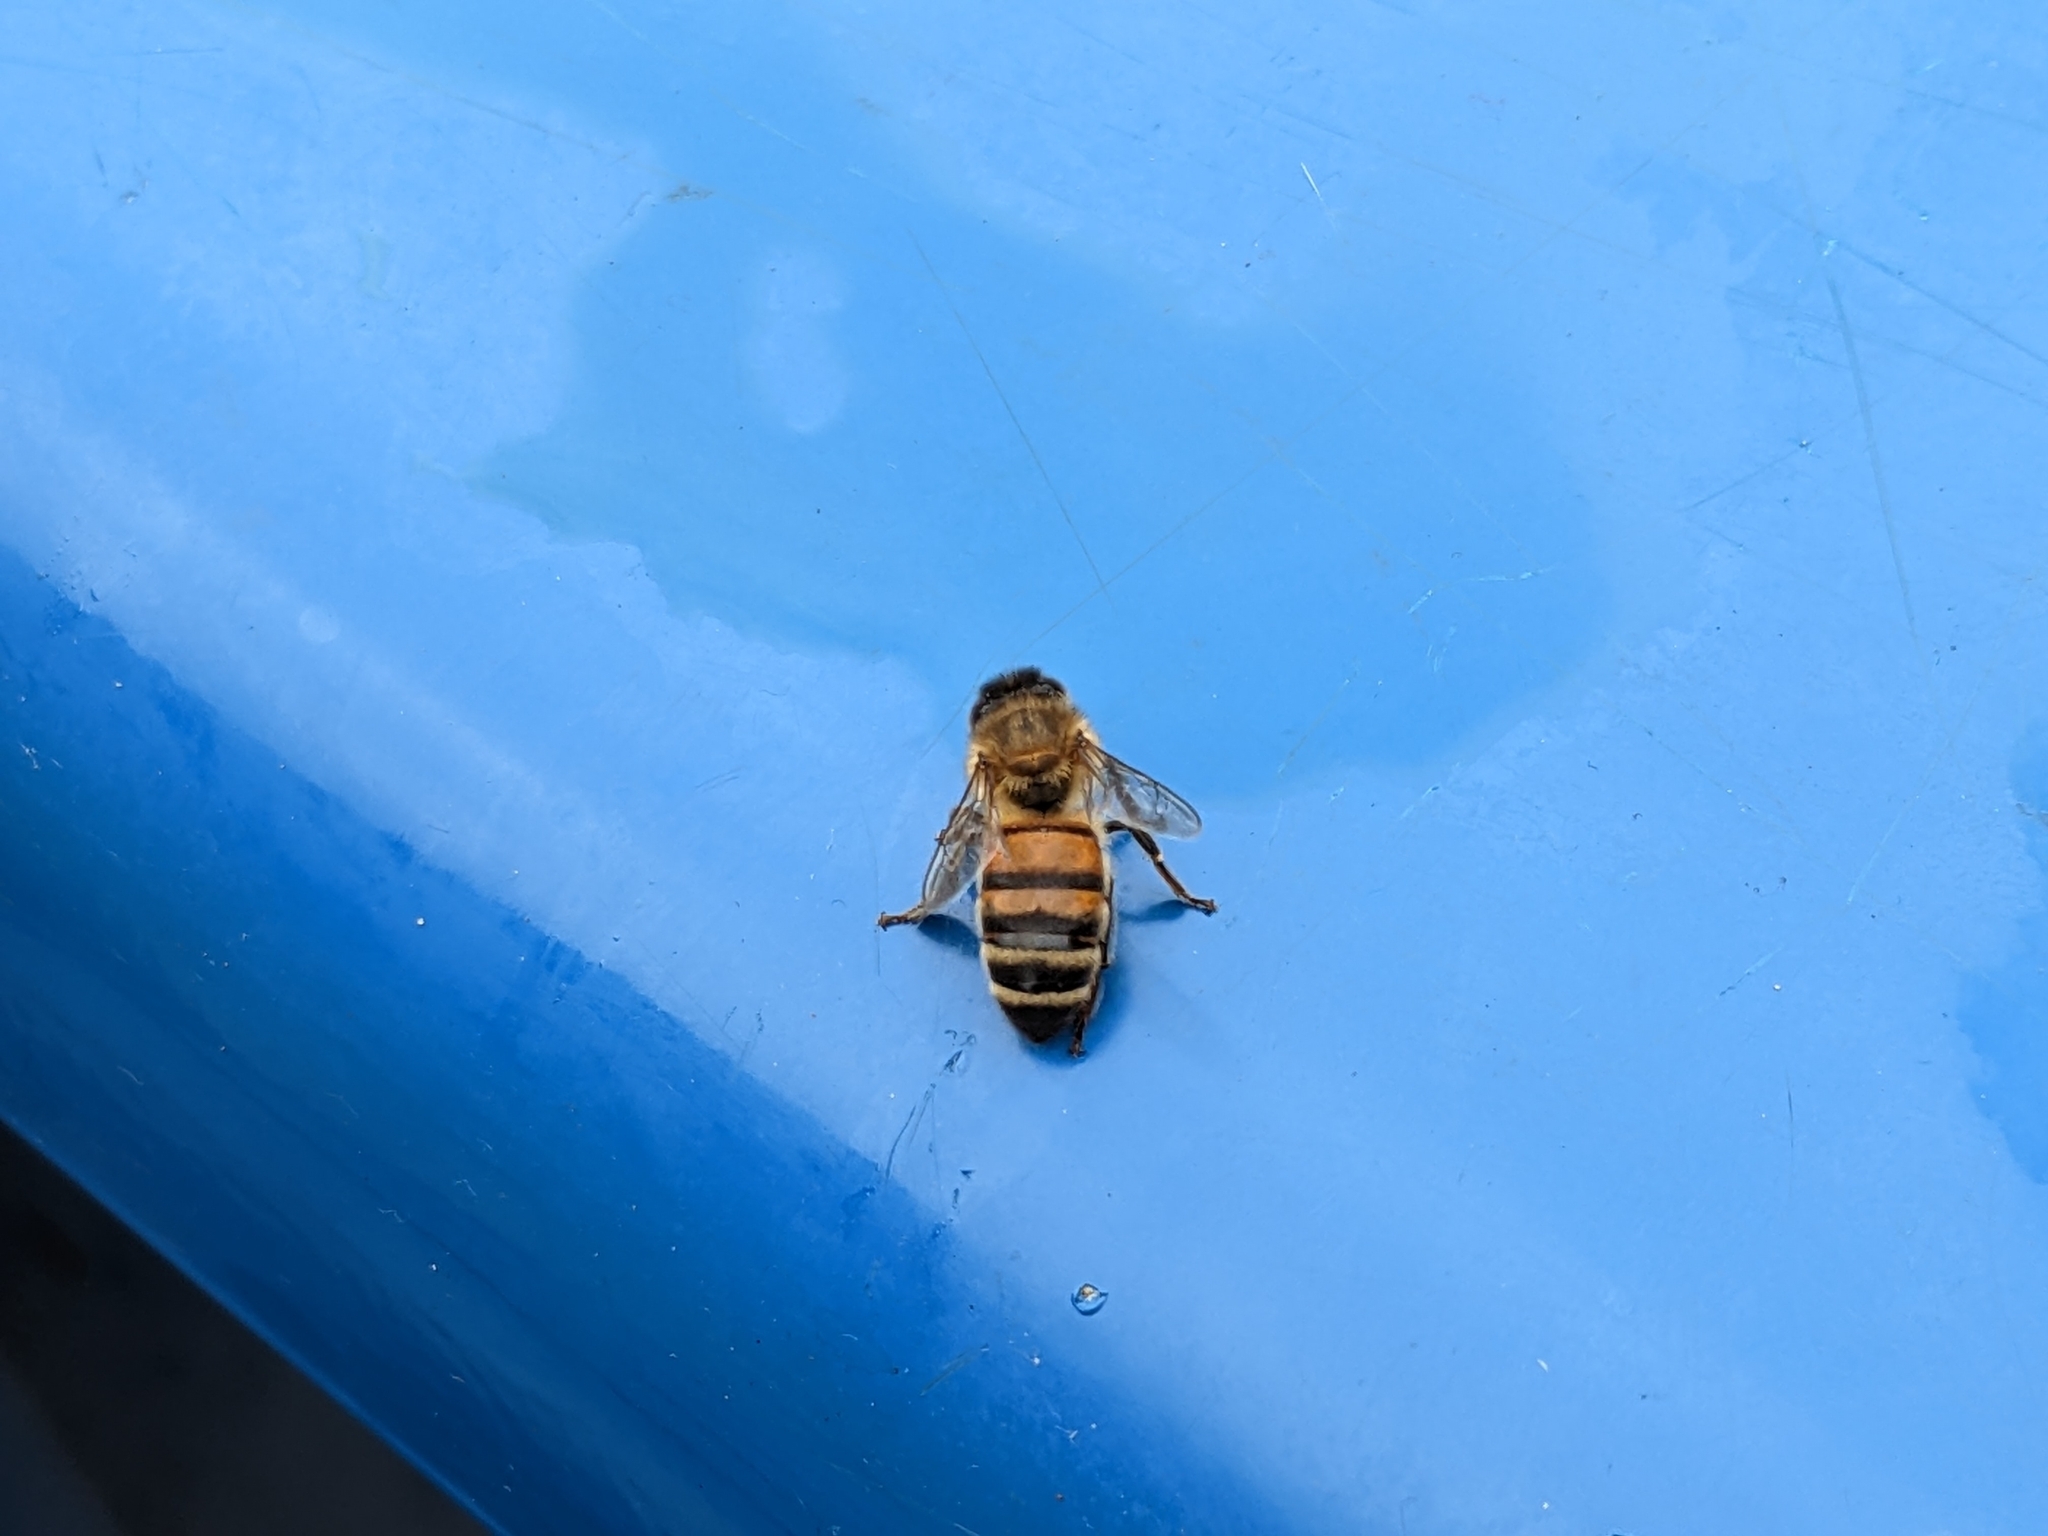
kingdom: Animalia
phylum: Arthropoda
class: Insecta
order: Hymenoptera
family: Apidae
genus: Apis
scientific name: Apis mellifera
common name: Honey bee
